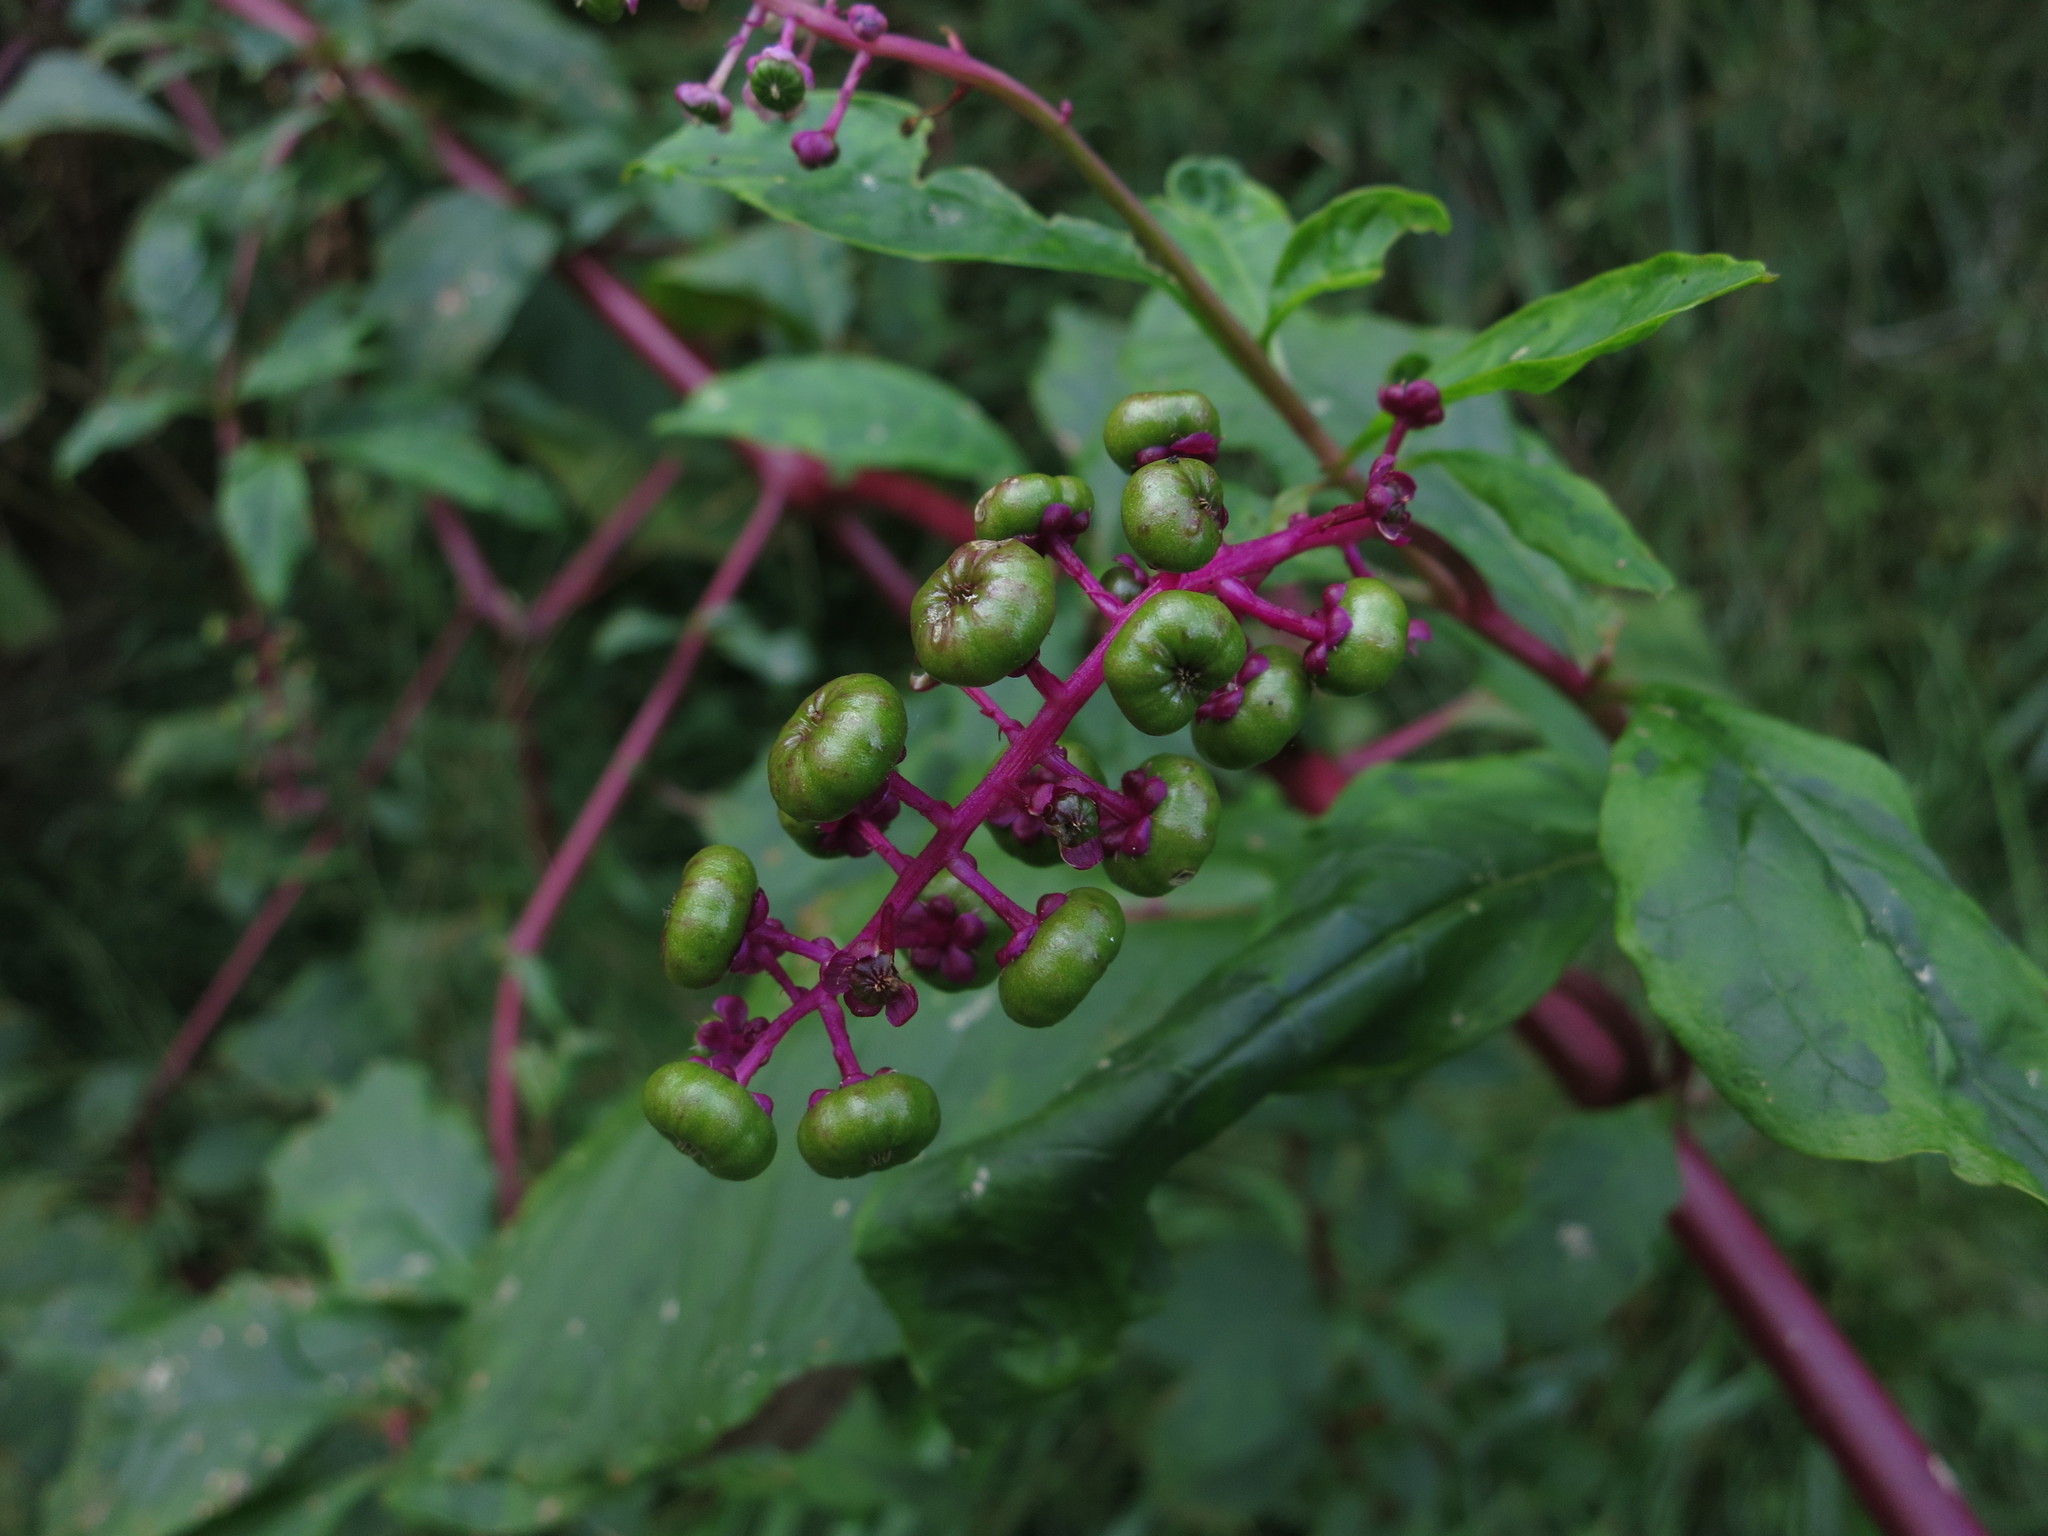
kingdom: Plantae
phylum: Tracheophyta
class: Magnoliopsida
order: Caryophyllales
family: Phytolaccaceae
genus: Phytolacca
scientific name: Phytolacca americana
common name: American pokeweed
